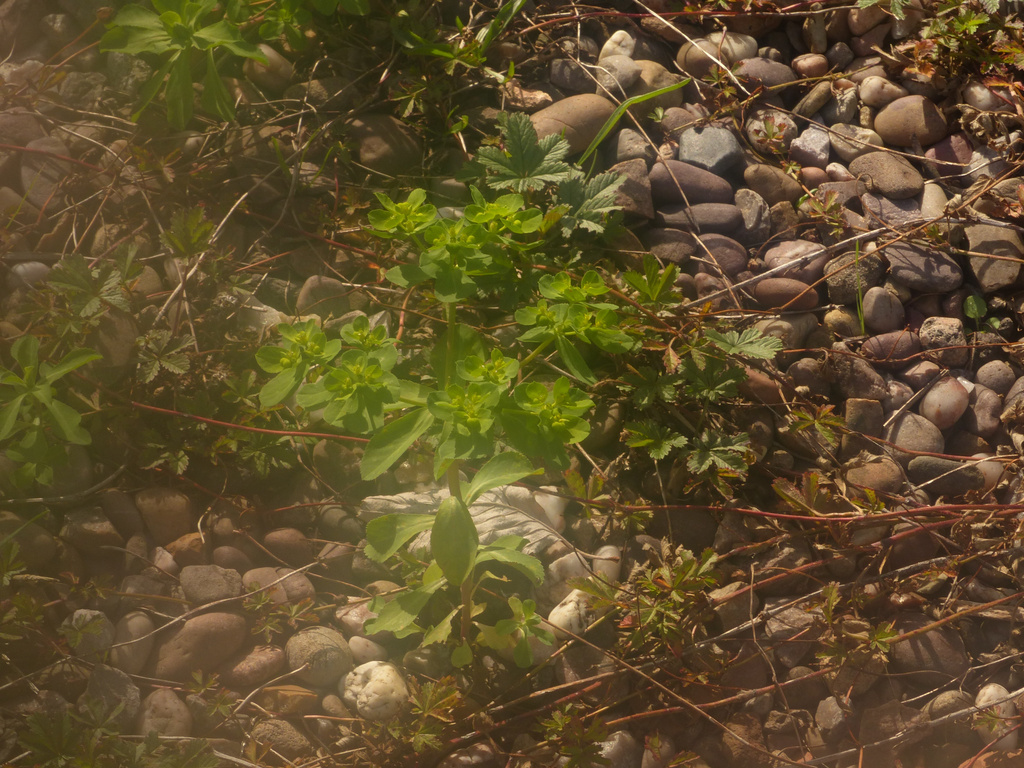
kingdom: Plantae
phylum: Tracheophyta
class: Magnoliopsida
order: Malpighiales
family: Euphorbiaceae
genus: Euphorbia
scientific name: Euphorbia helioscopia
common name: Sun spurge
